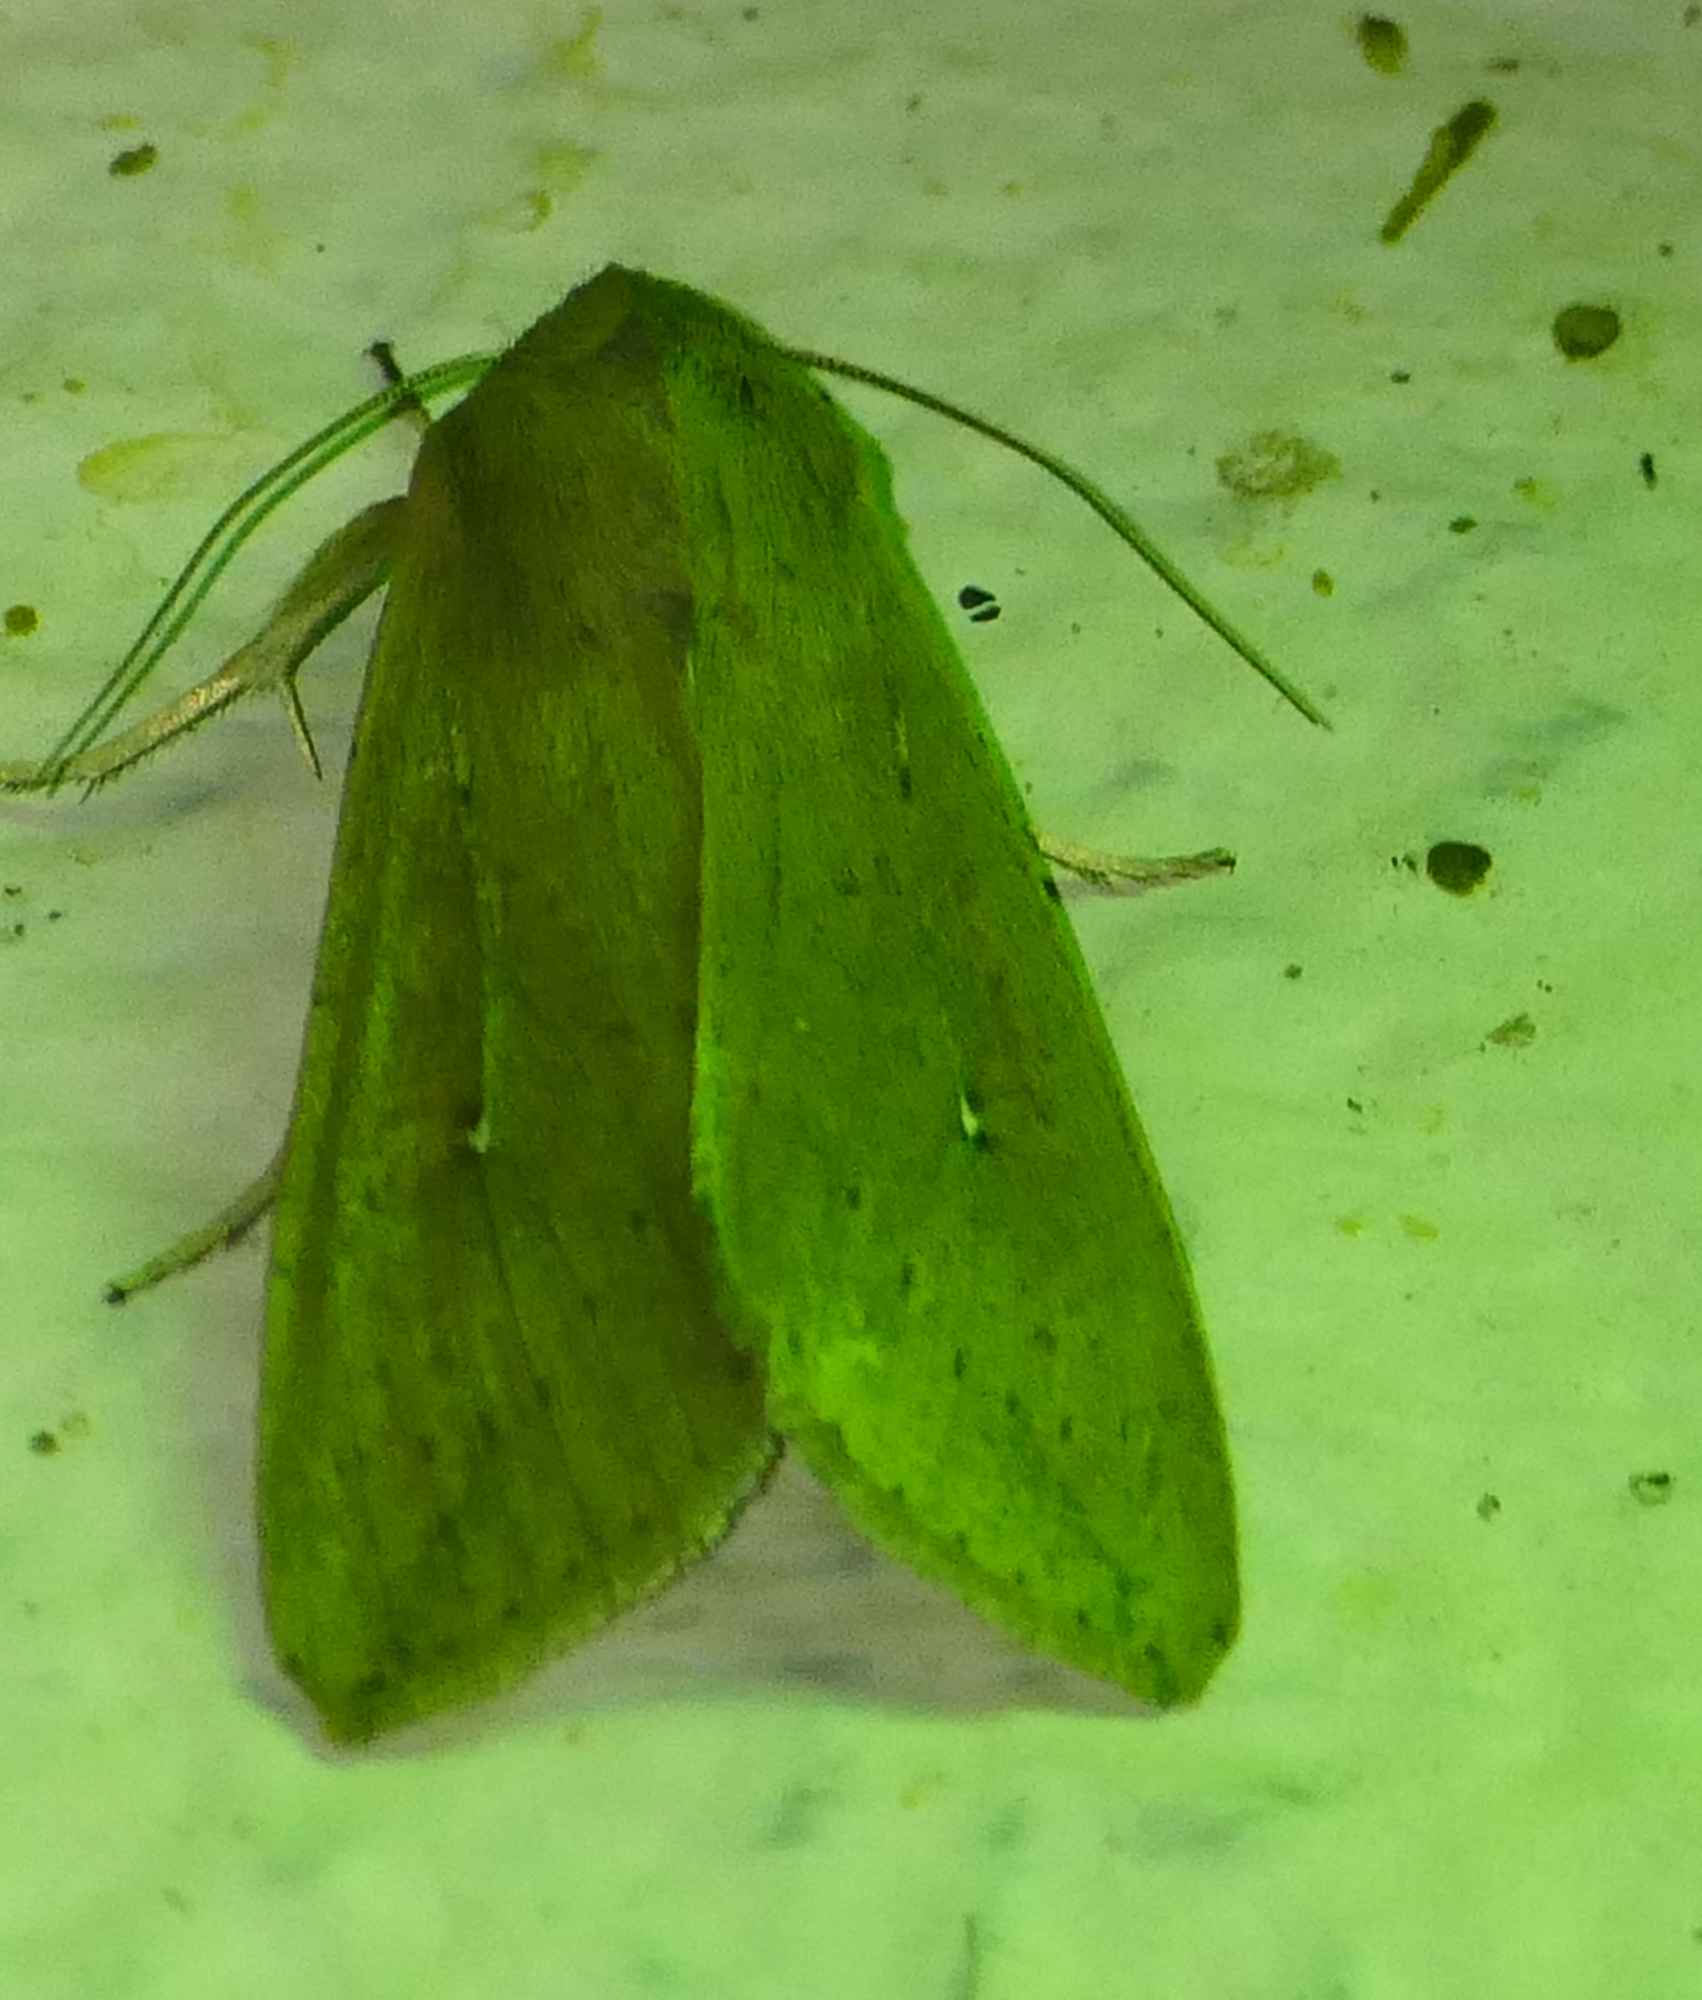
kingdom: Animalia
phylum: Arthropoda
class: Insecta
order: Lepidoptera
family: Noctuidae
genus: Mythimna
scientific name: Mythimna unipuncta
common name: White-speck
